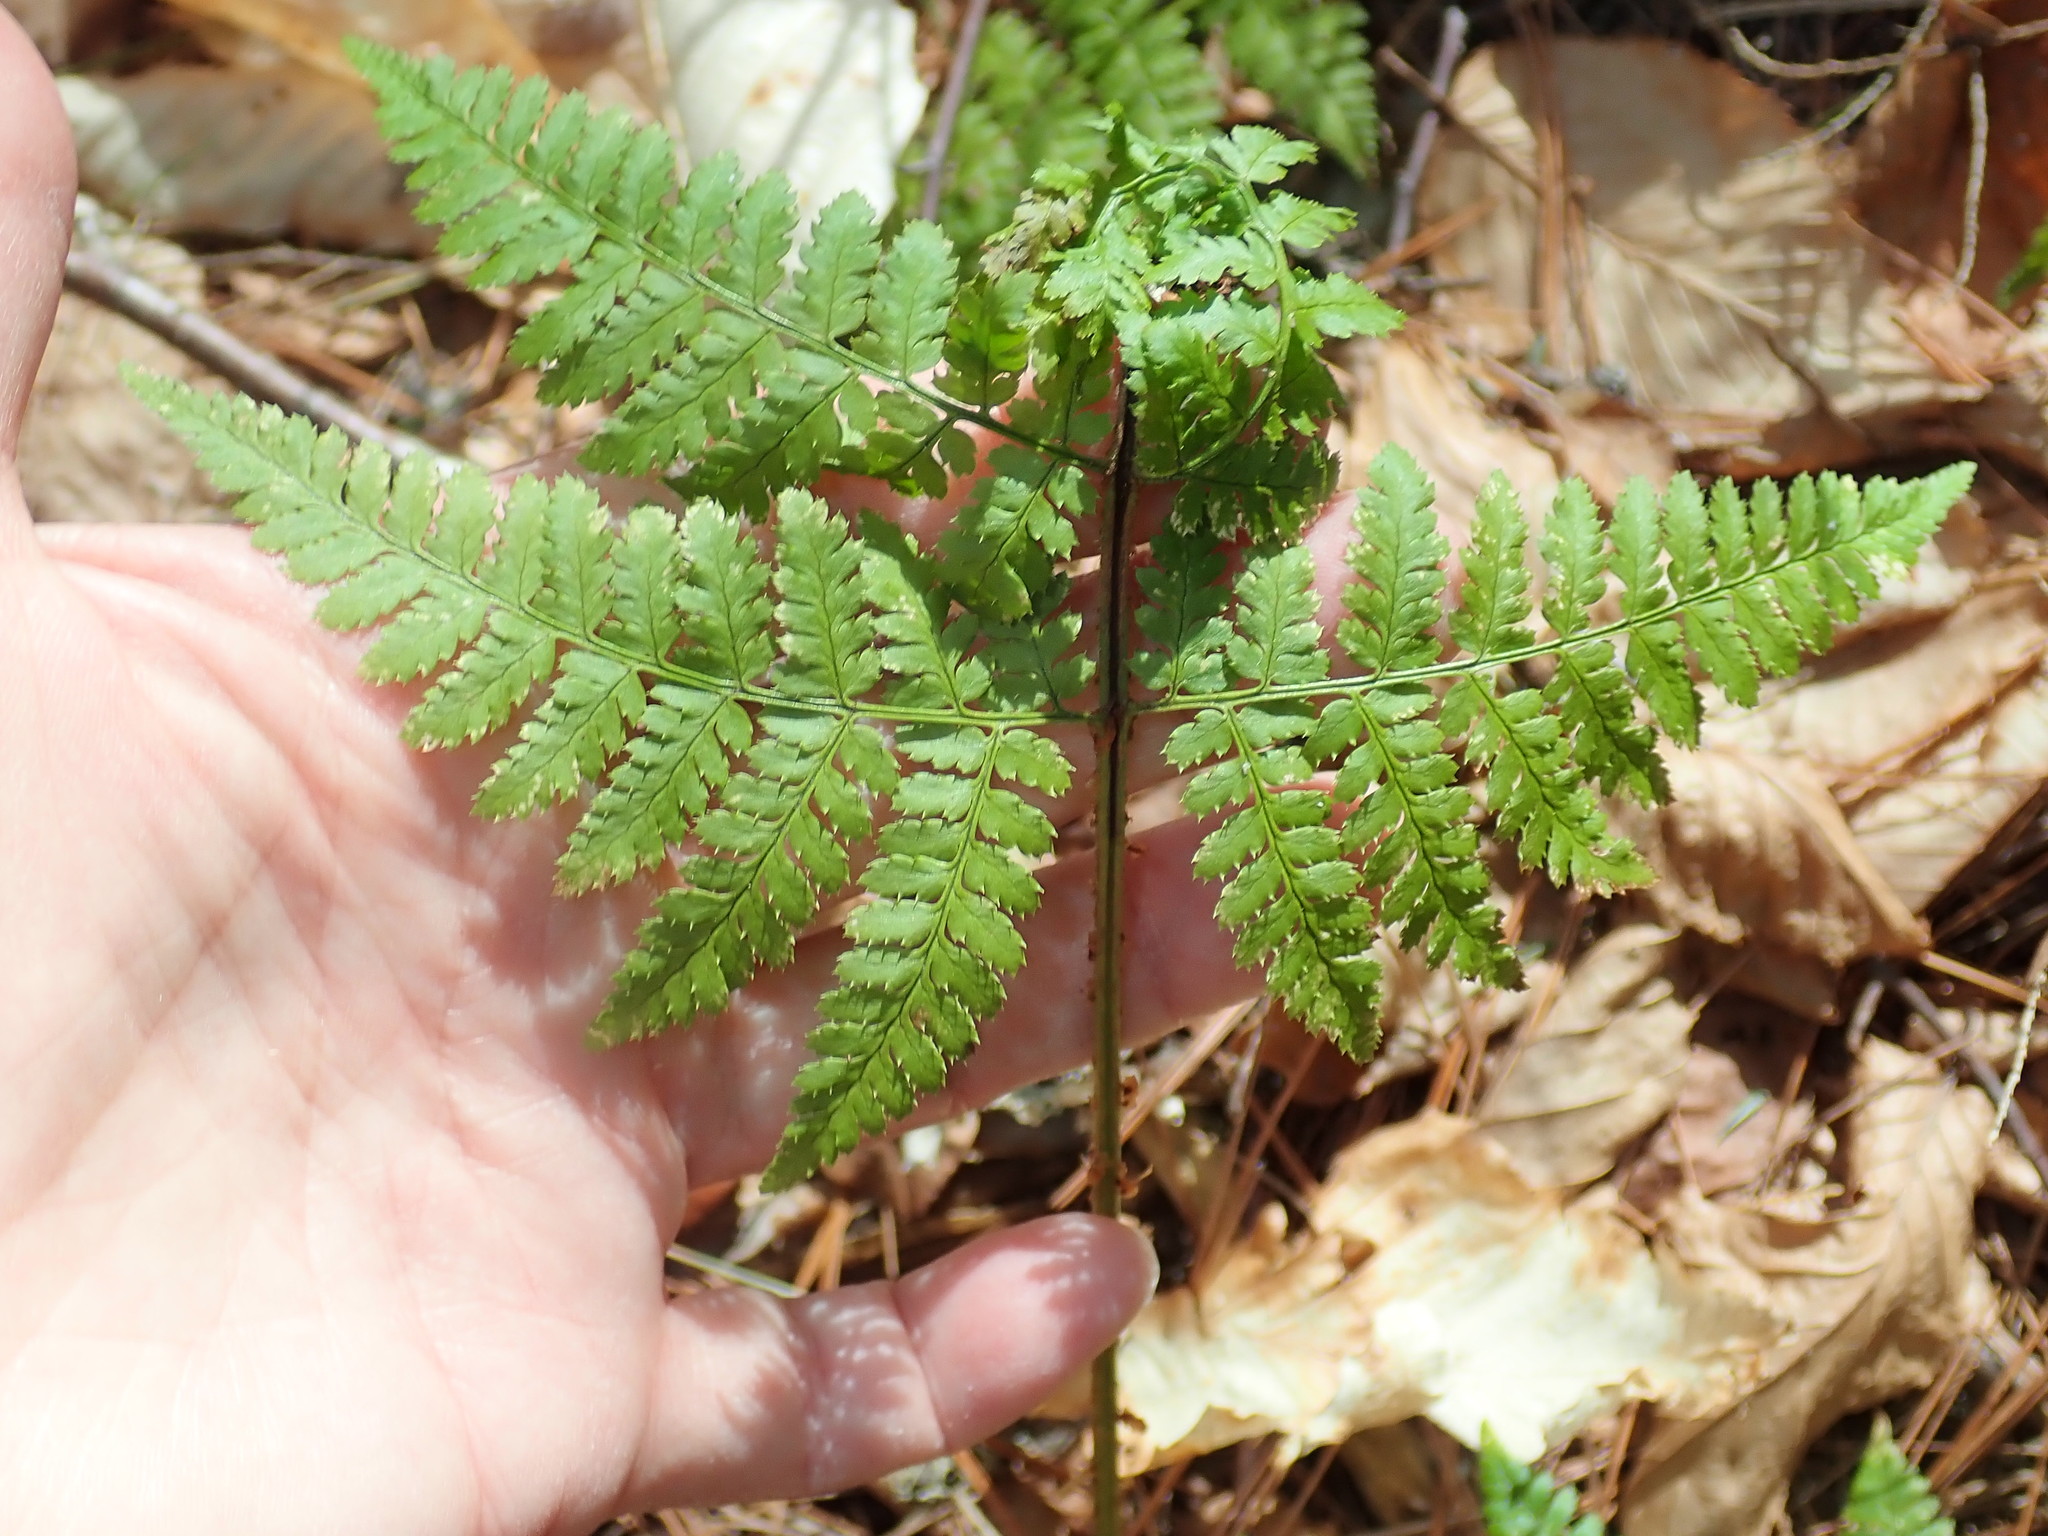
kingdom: Plantae
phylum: Tracheophyta
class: Polypodiopsida
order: Polypodiales
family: Dryopteridaceae
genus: Dryopteris
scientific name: Dryopteris carthusiana
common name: Narrow buckler-fern
